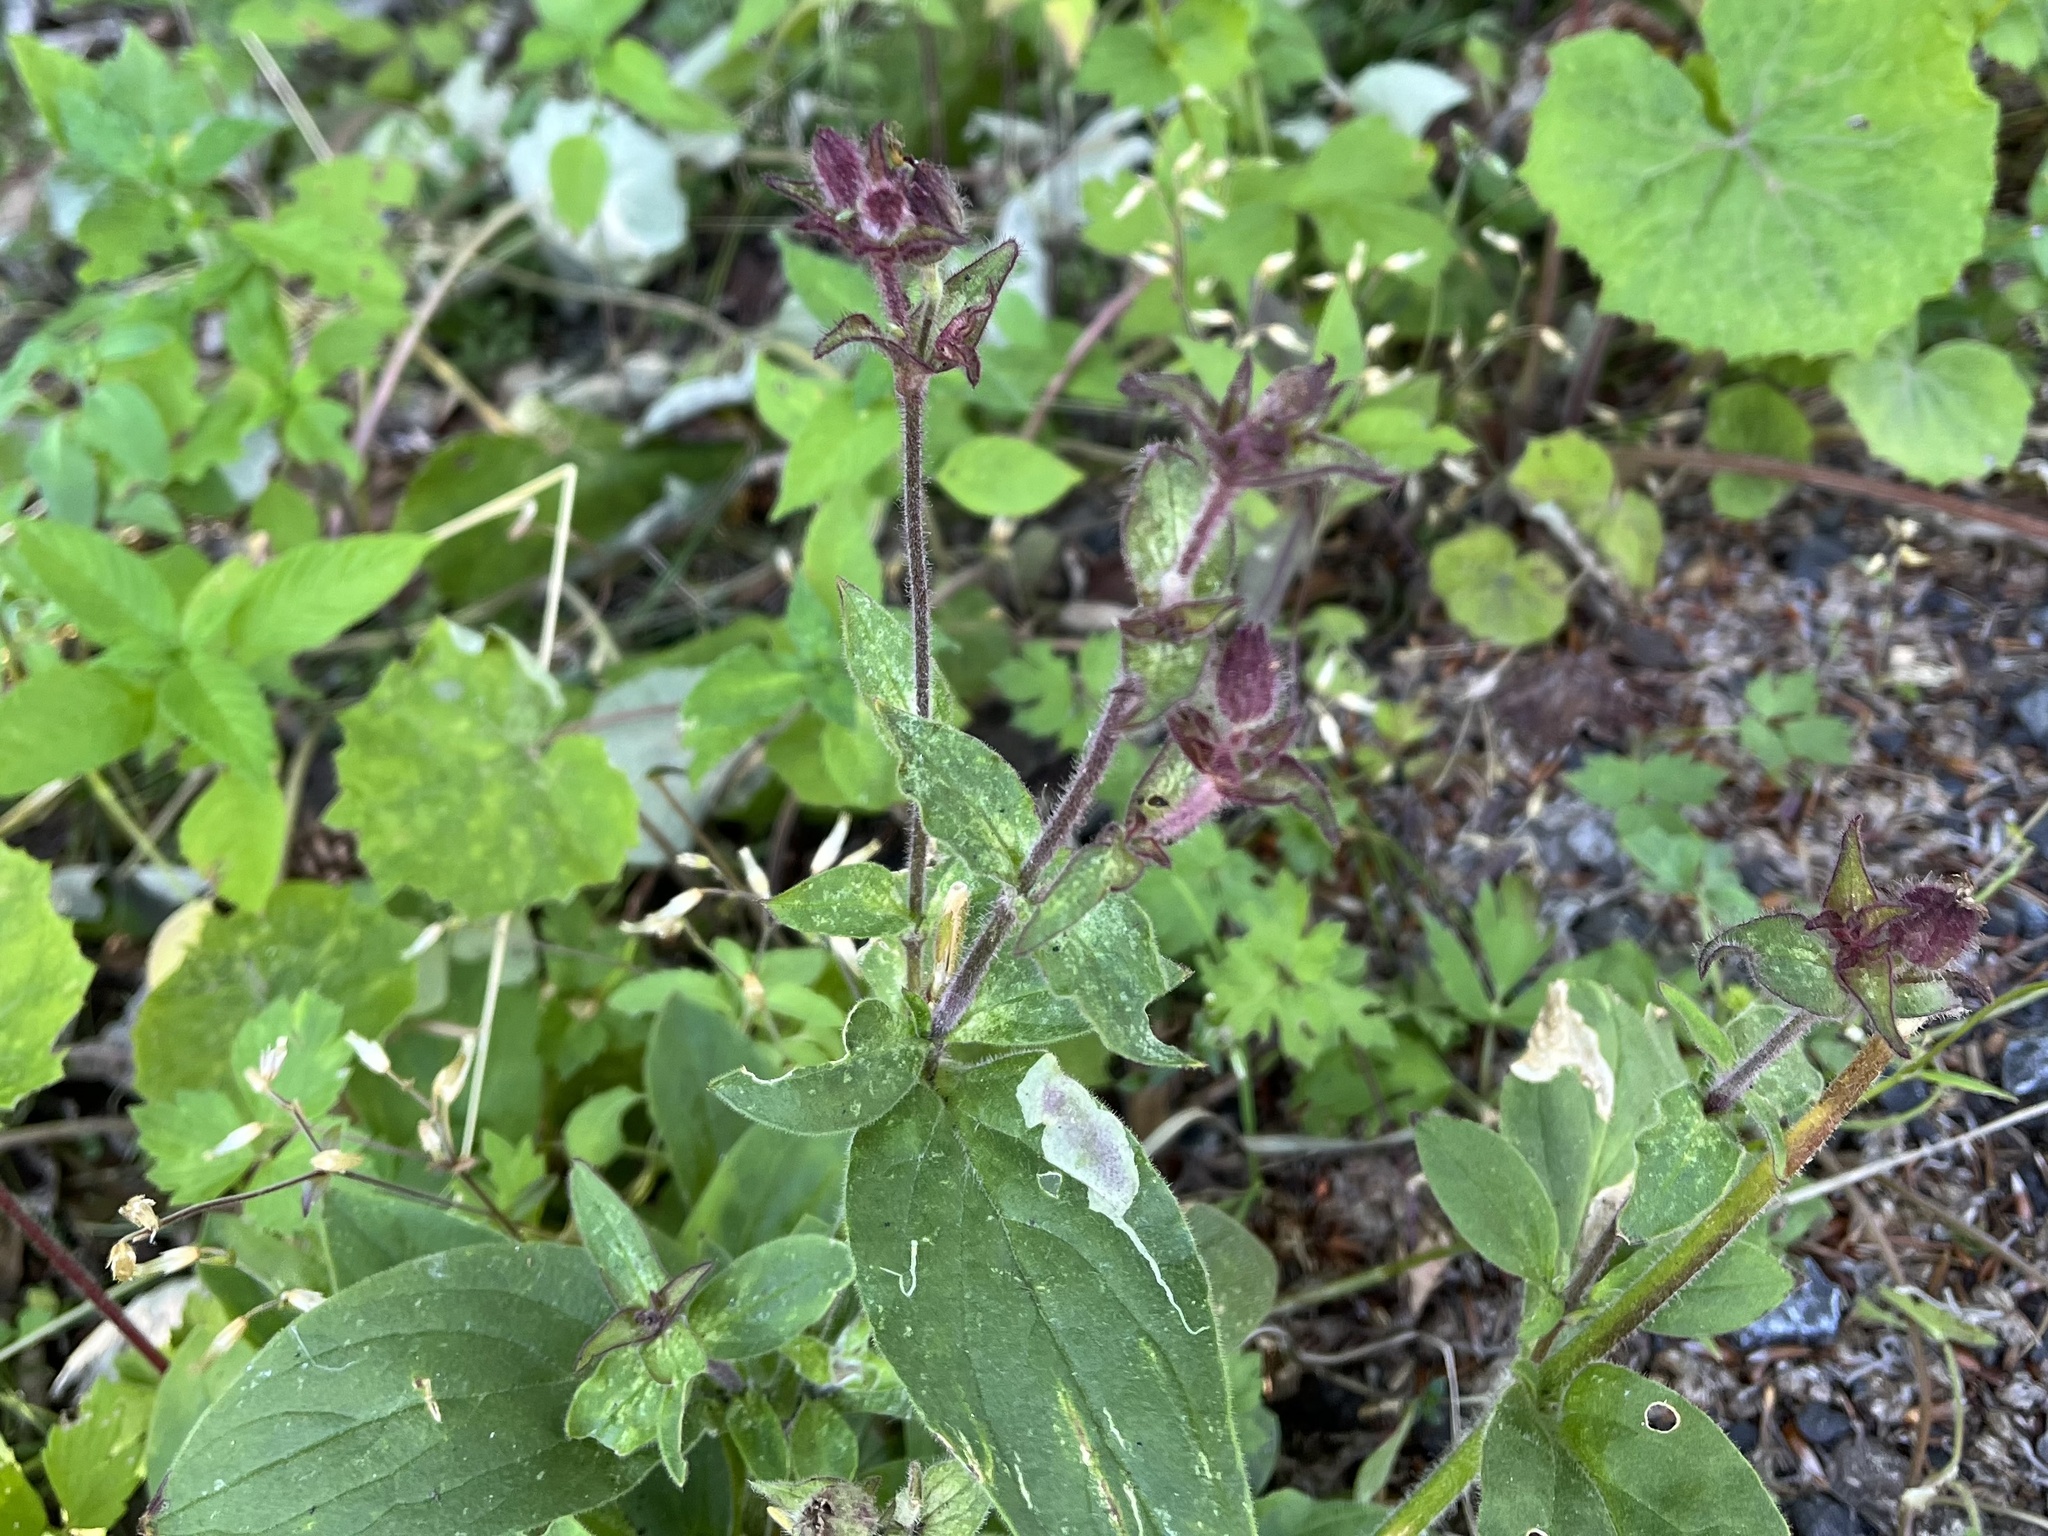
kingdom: Plantae
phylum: Tracheophyta
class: Magnoliopsida
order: Caryophyllales
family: Caryophyllaceae
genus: Silene
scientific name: Silene dioica
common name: Red campion
